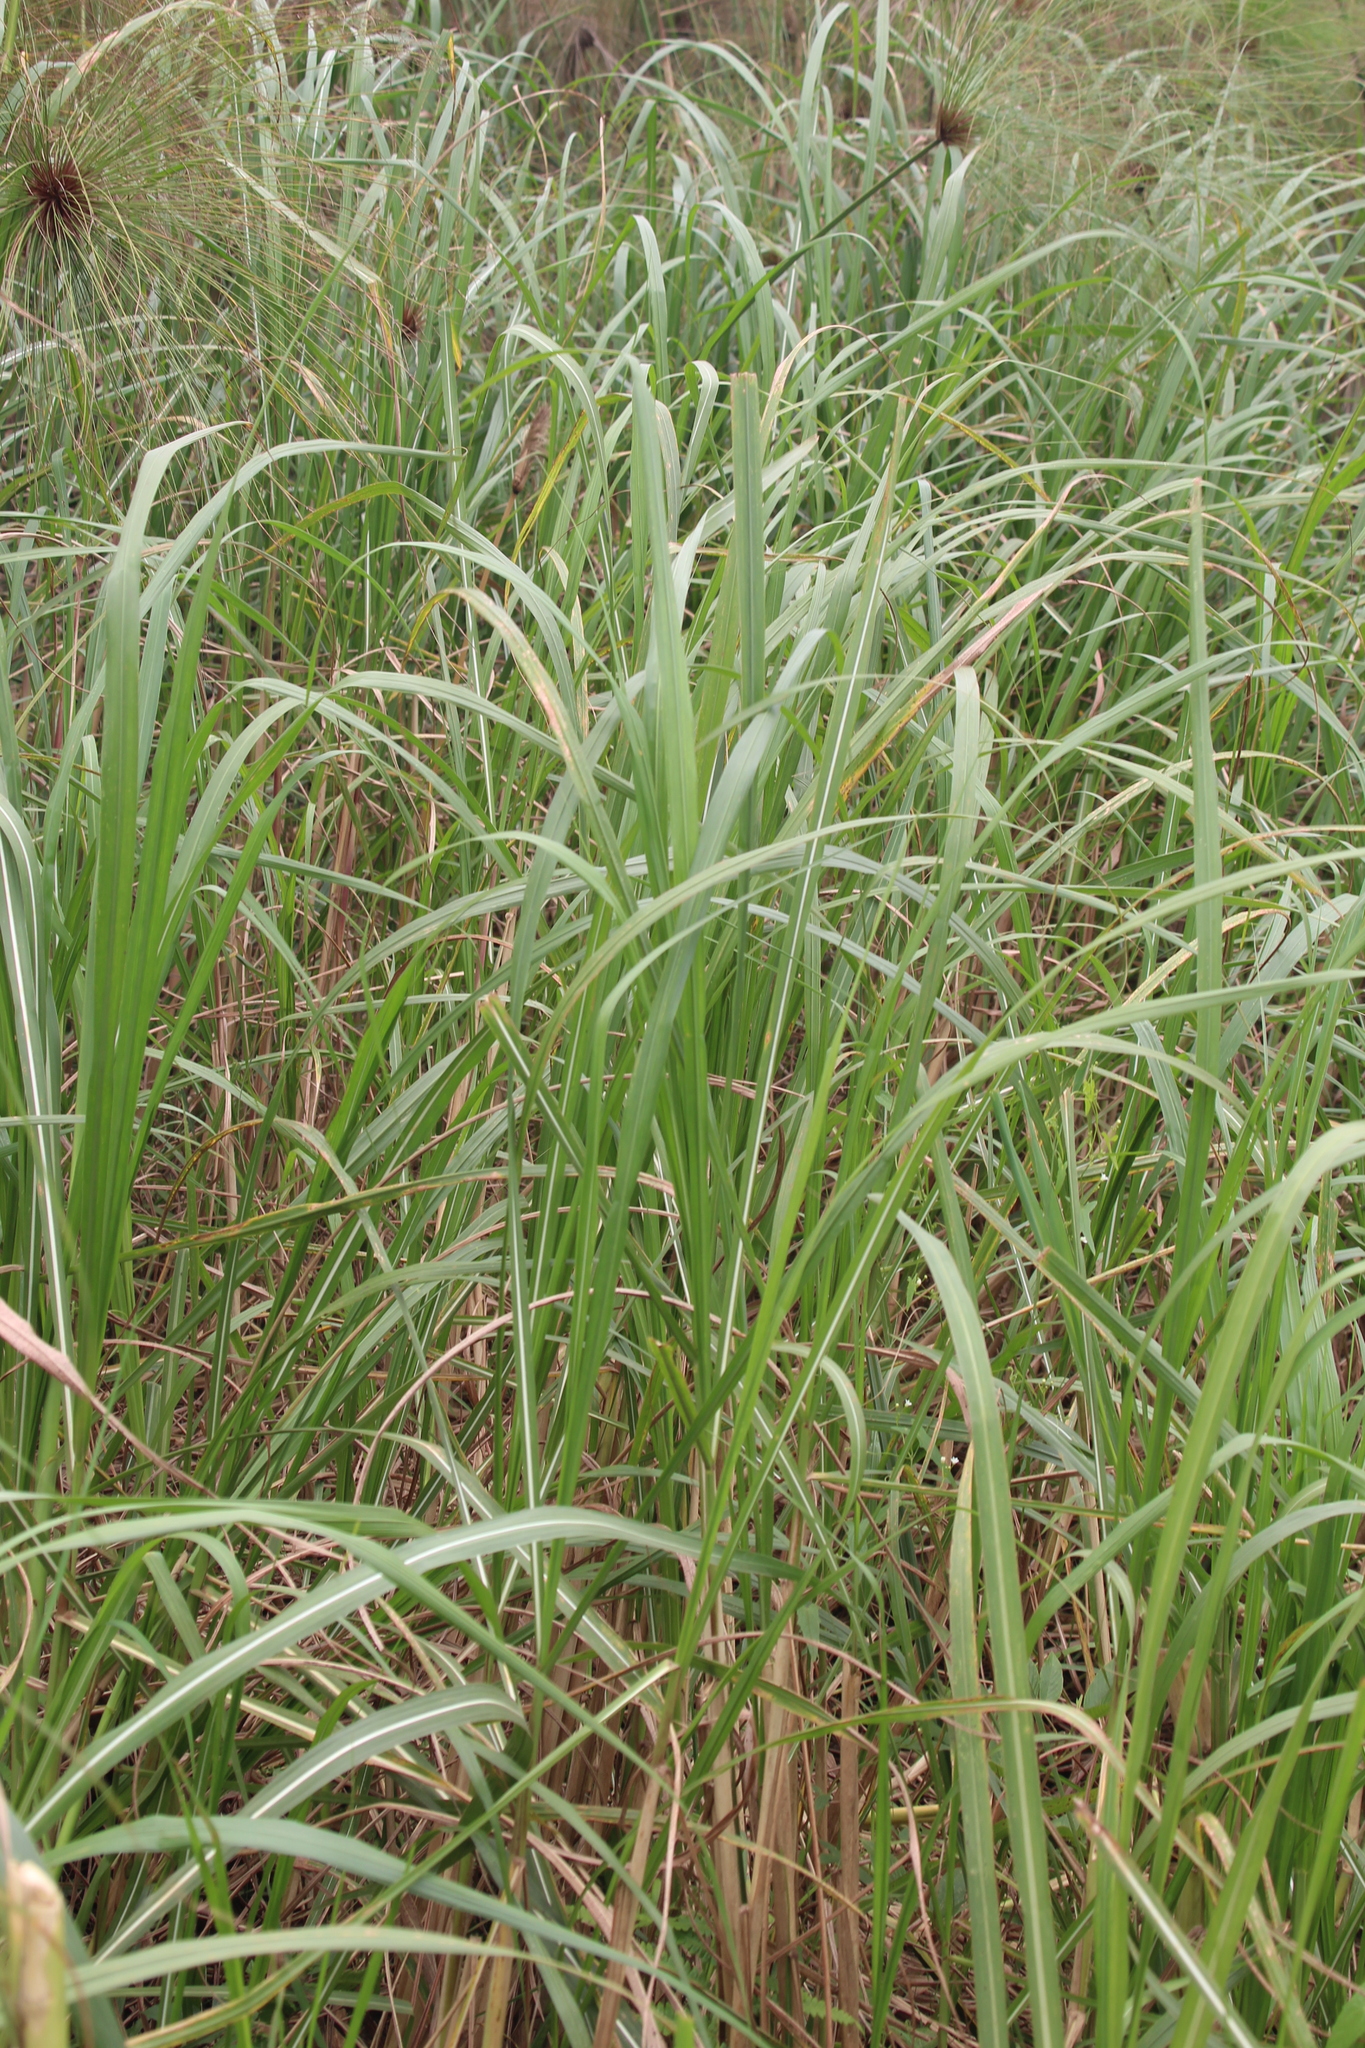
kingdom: Plantae
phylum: Tracheophyta
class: Liliopsida
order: Poales
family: Poaceae
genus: Vossia
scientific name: Vossia cuspidata
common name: Hippo grass
